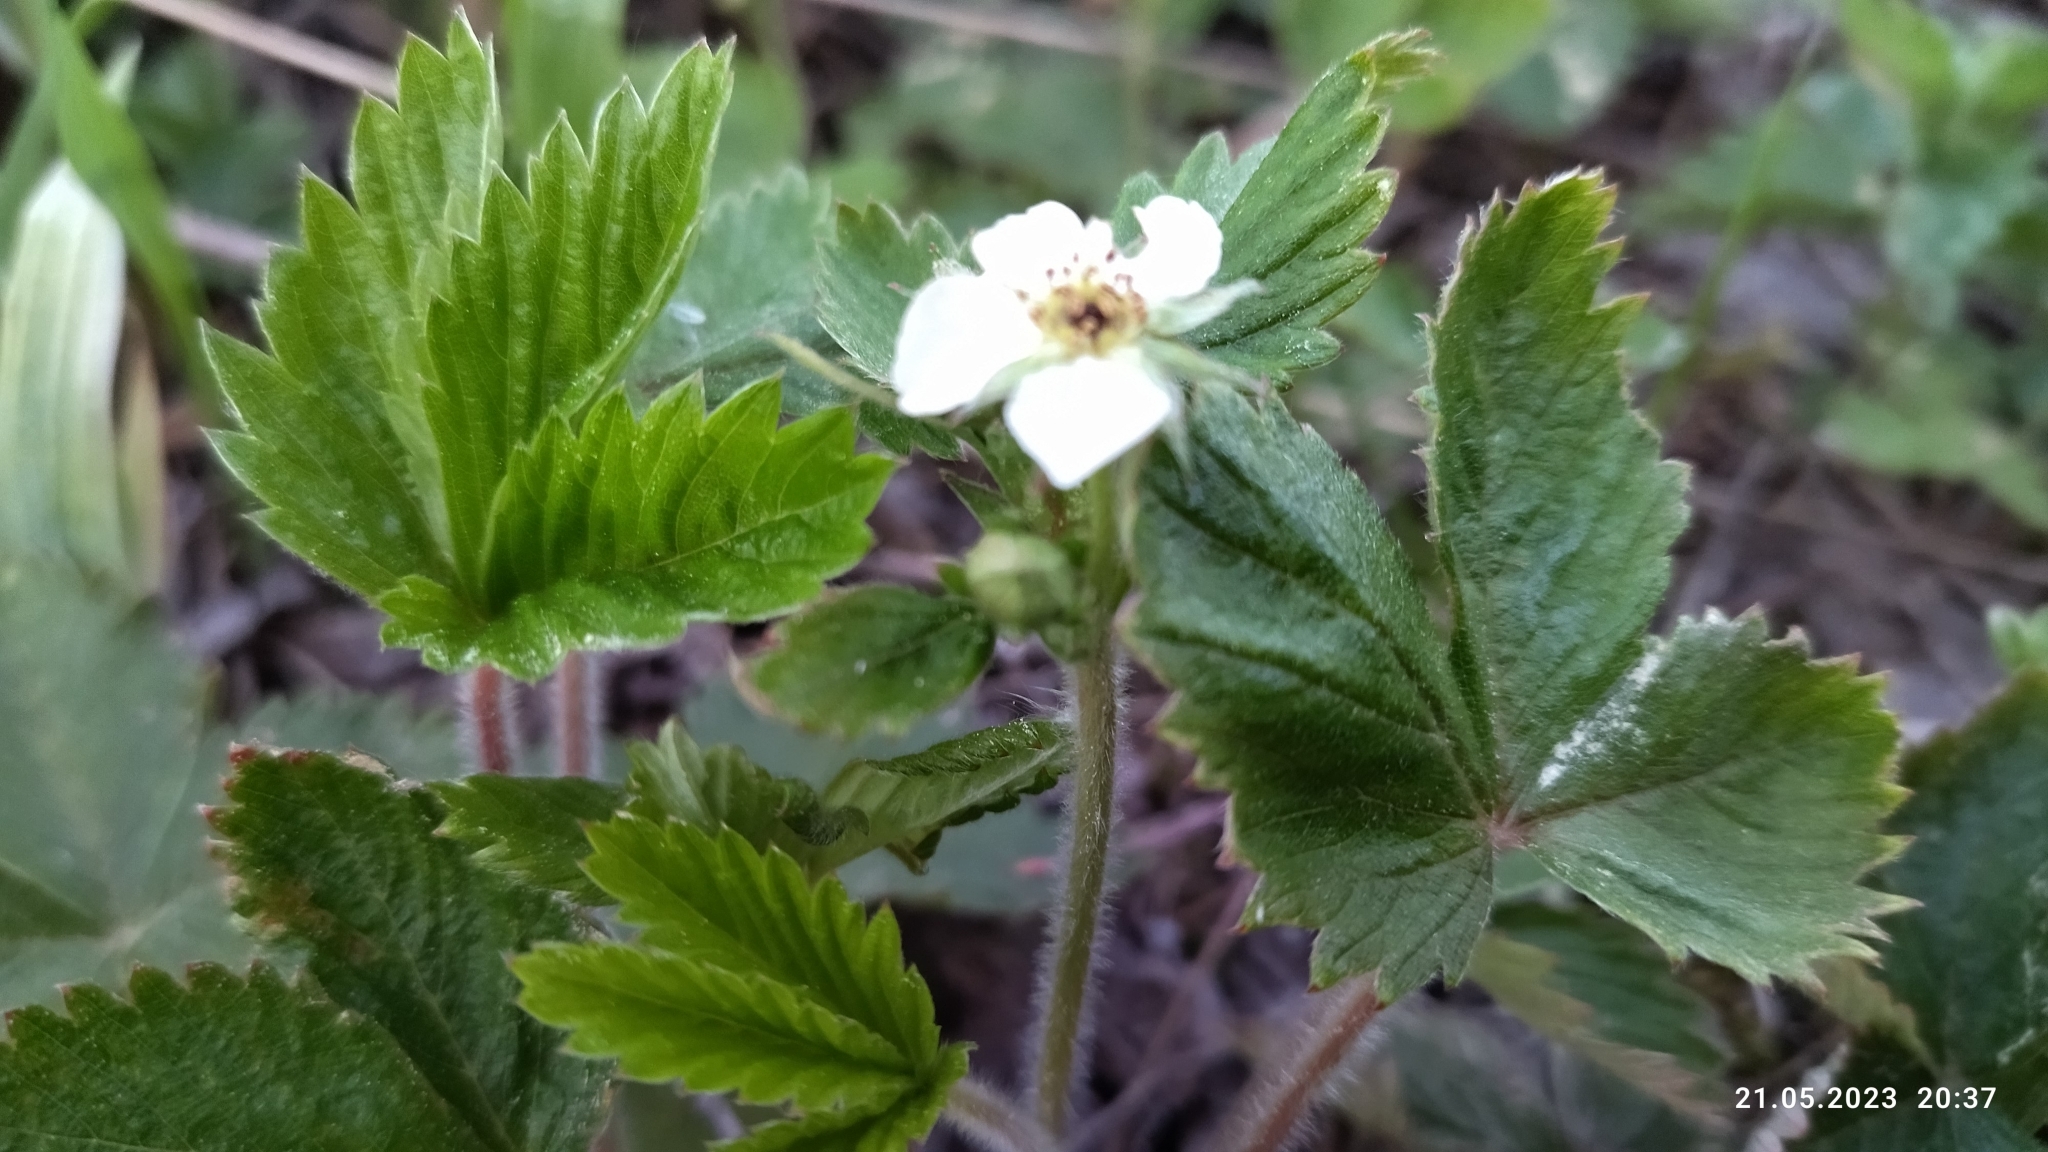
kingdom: Plantae
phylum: Tracheophyta
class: Magnoliopsida
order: Rosales
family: Rosaceae
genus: Fragaria
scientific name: Fragaria vesca
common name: Wild strawberry
